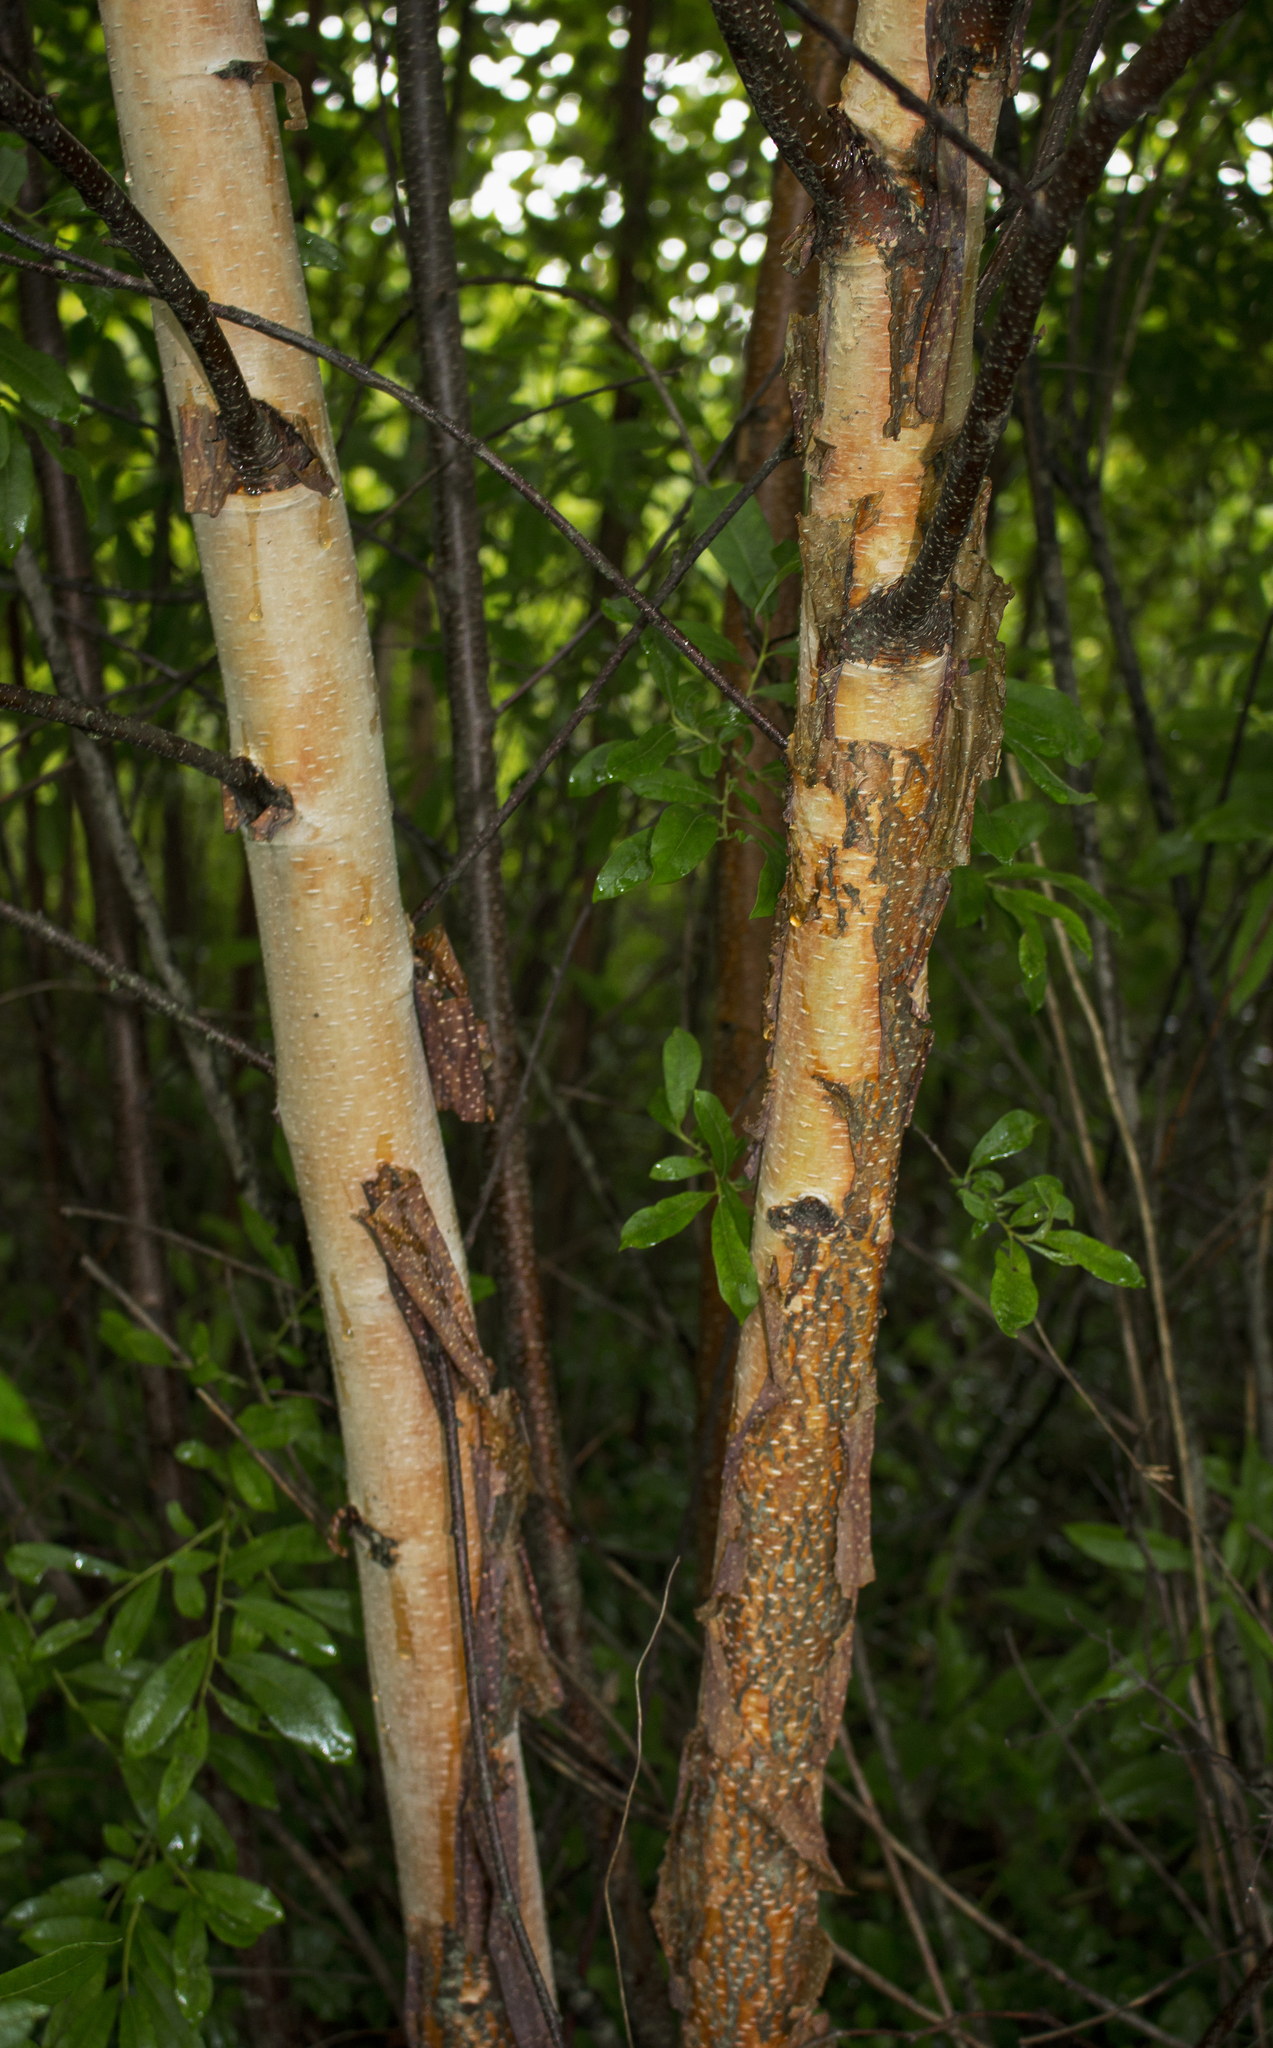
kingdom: Plantae
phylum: Tracheophyta
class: Magnoliopsida
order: Fagales
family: Betulaceae
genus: Betula
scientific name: Betula nigra
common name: Black birch
